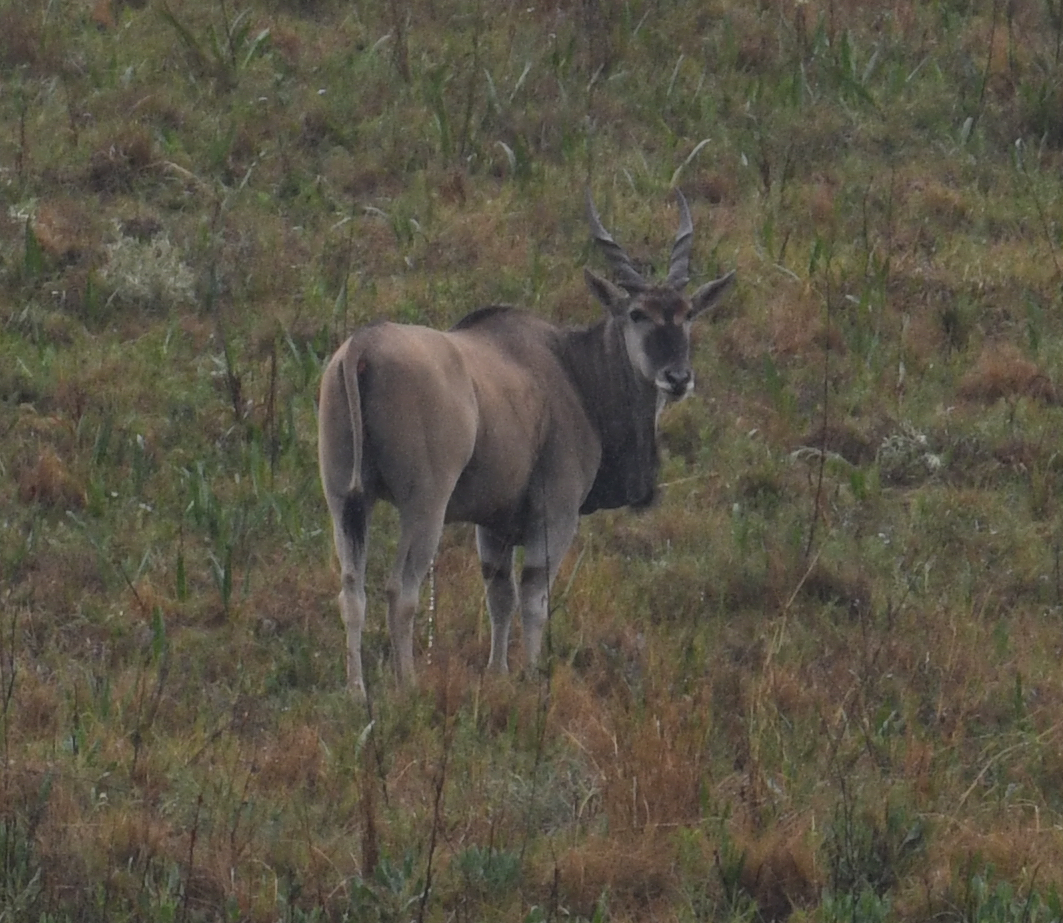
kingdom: Animalia
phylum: Chordata
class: Mammalia
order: Artiodactyla
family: Bovidae
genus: Taurotragus
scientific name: Taurotragus oryx
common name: Common eland
